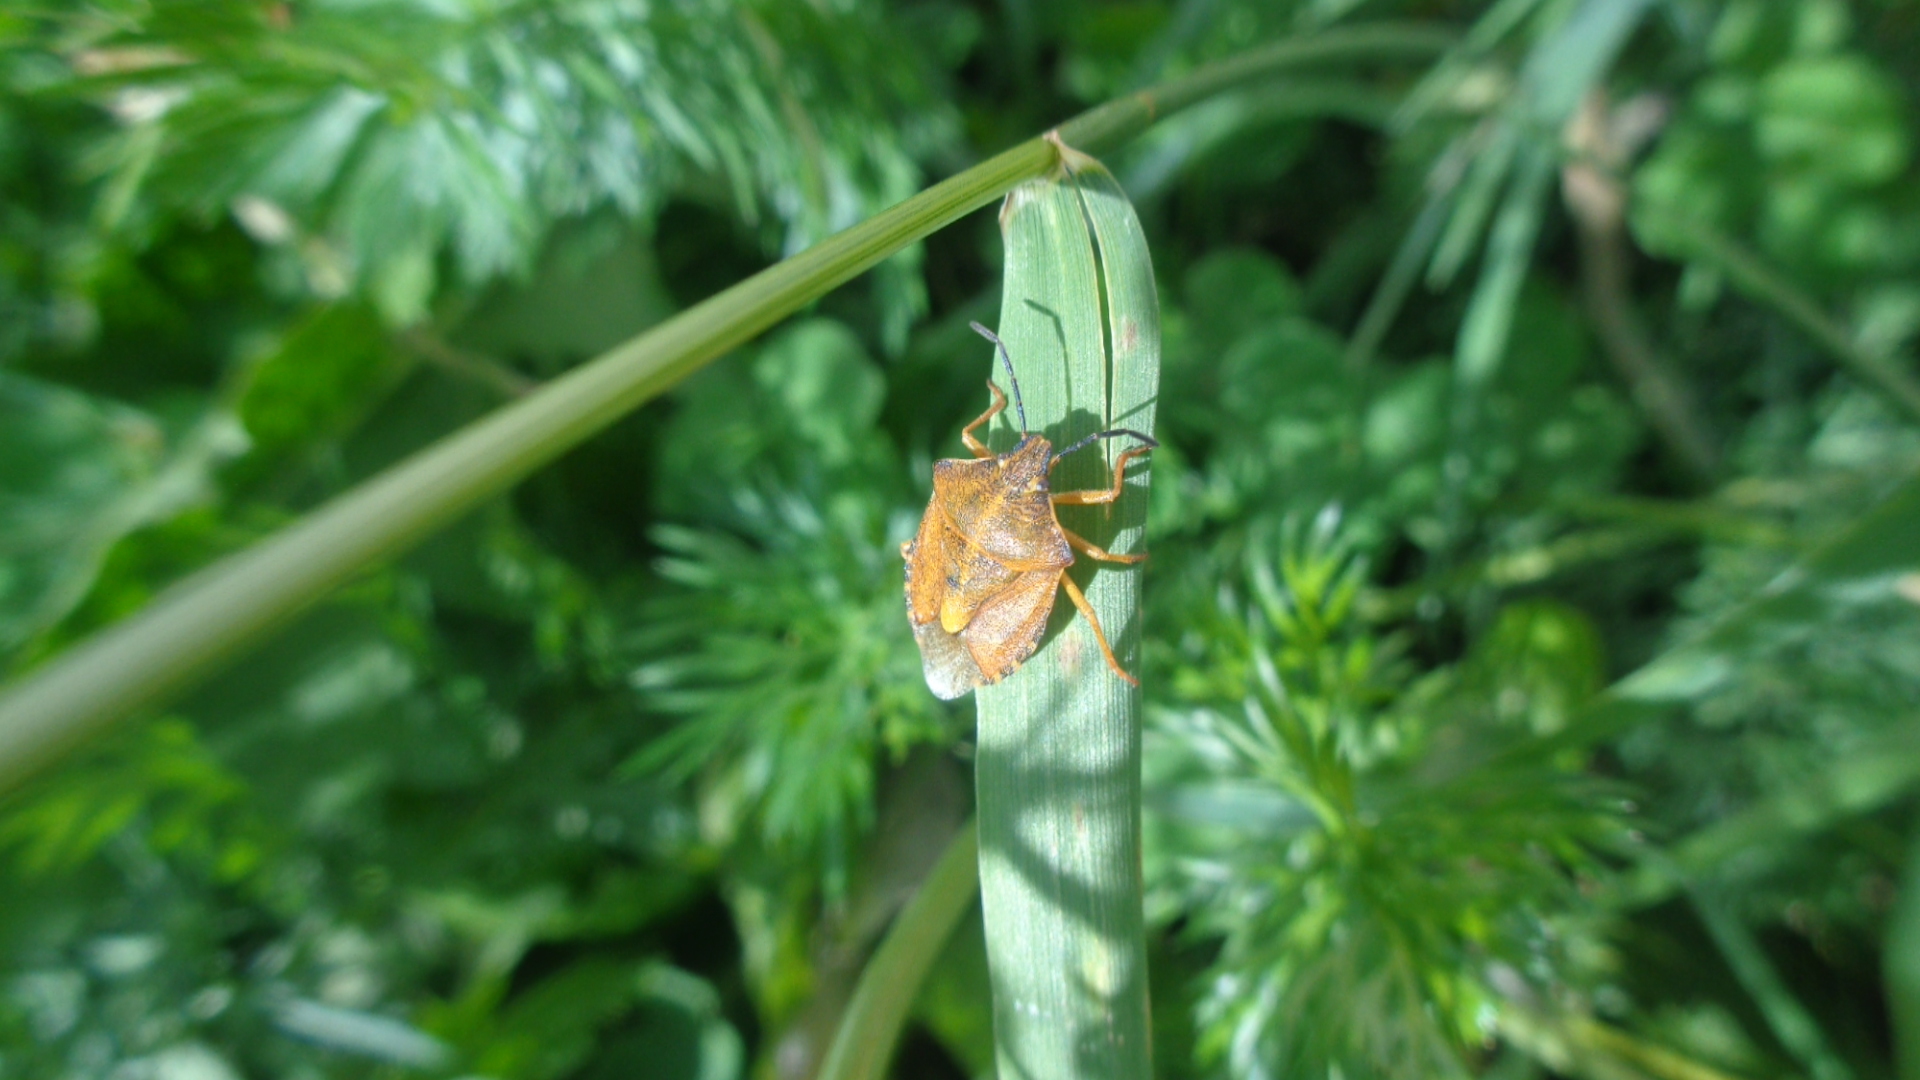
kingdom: Animalia
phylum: Arthropoda
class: Insecta
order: Hemiptera
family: Pentatomidae
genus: Carpocoris
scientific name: Carpocoris purpureipennis
